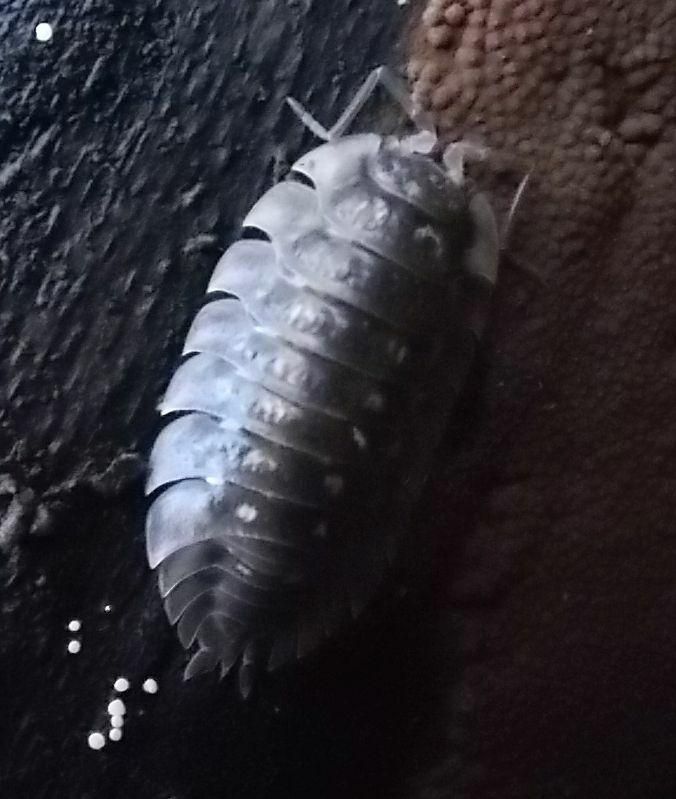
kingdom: Animalia
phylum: Arthropoda
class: Malacostraca
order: Isopoda
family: Oniscidae
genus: Oniscus
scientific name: Oniscus asellus
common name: Common shiny woodlouse
